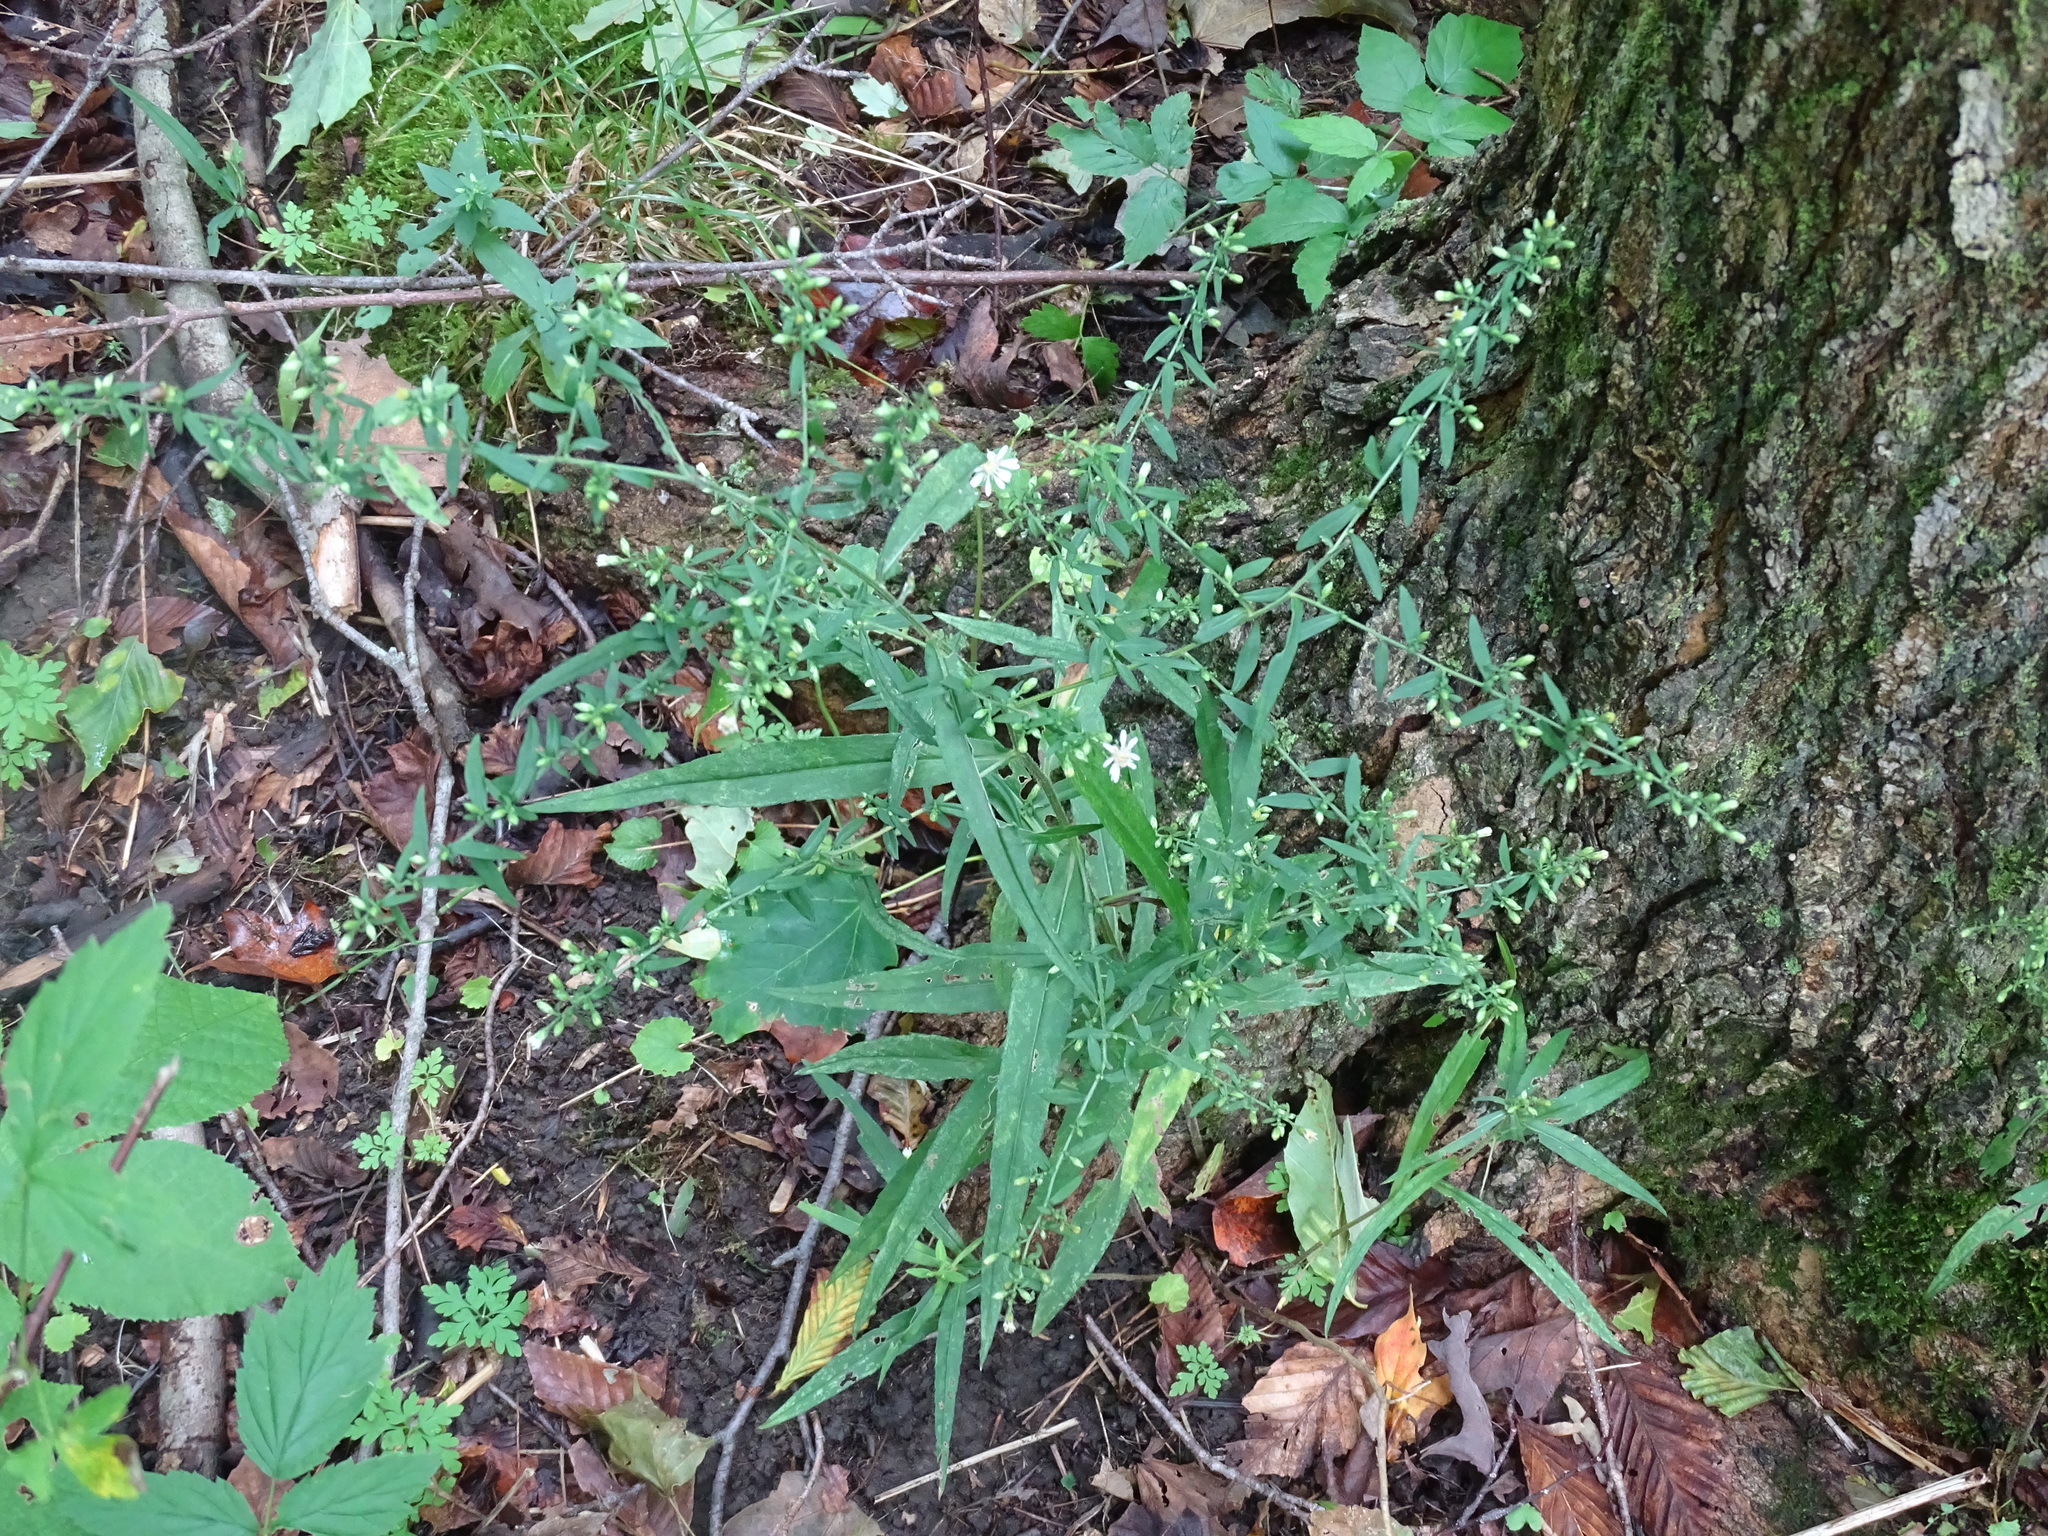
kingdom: Plantae
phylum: Tracheophyta
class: Magnoliopsida
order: Asterales
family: Asteraceae
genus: Symphyotrichum
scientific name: Symphyotrichum lateriflorum
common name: Calico aster
